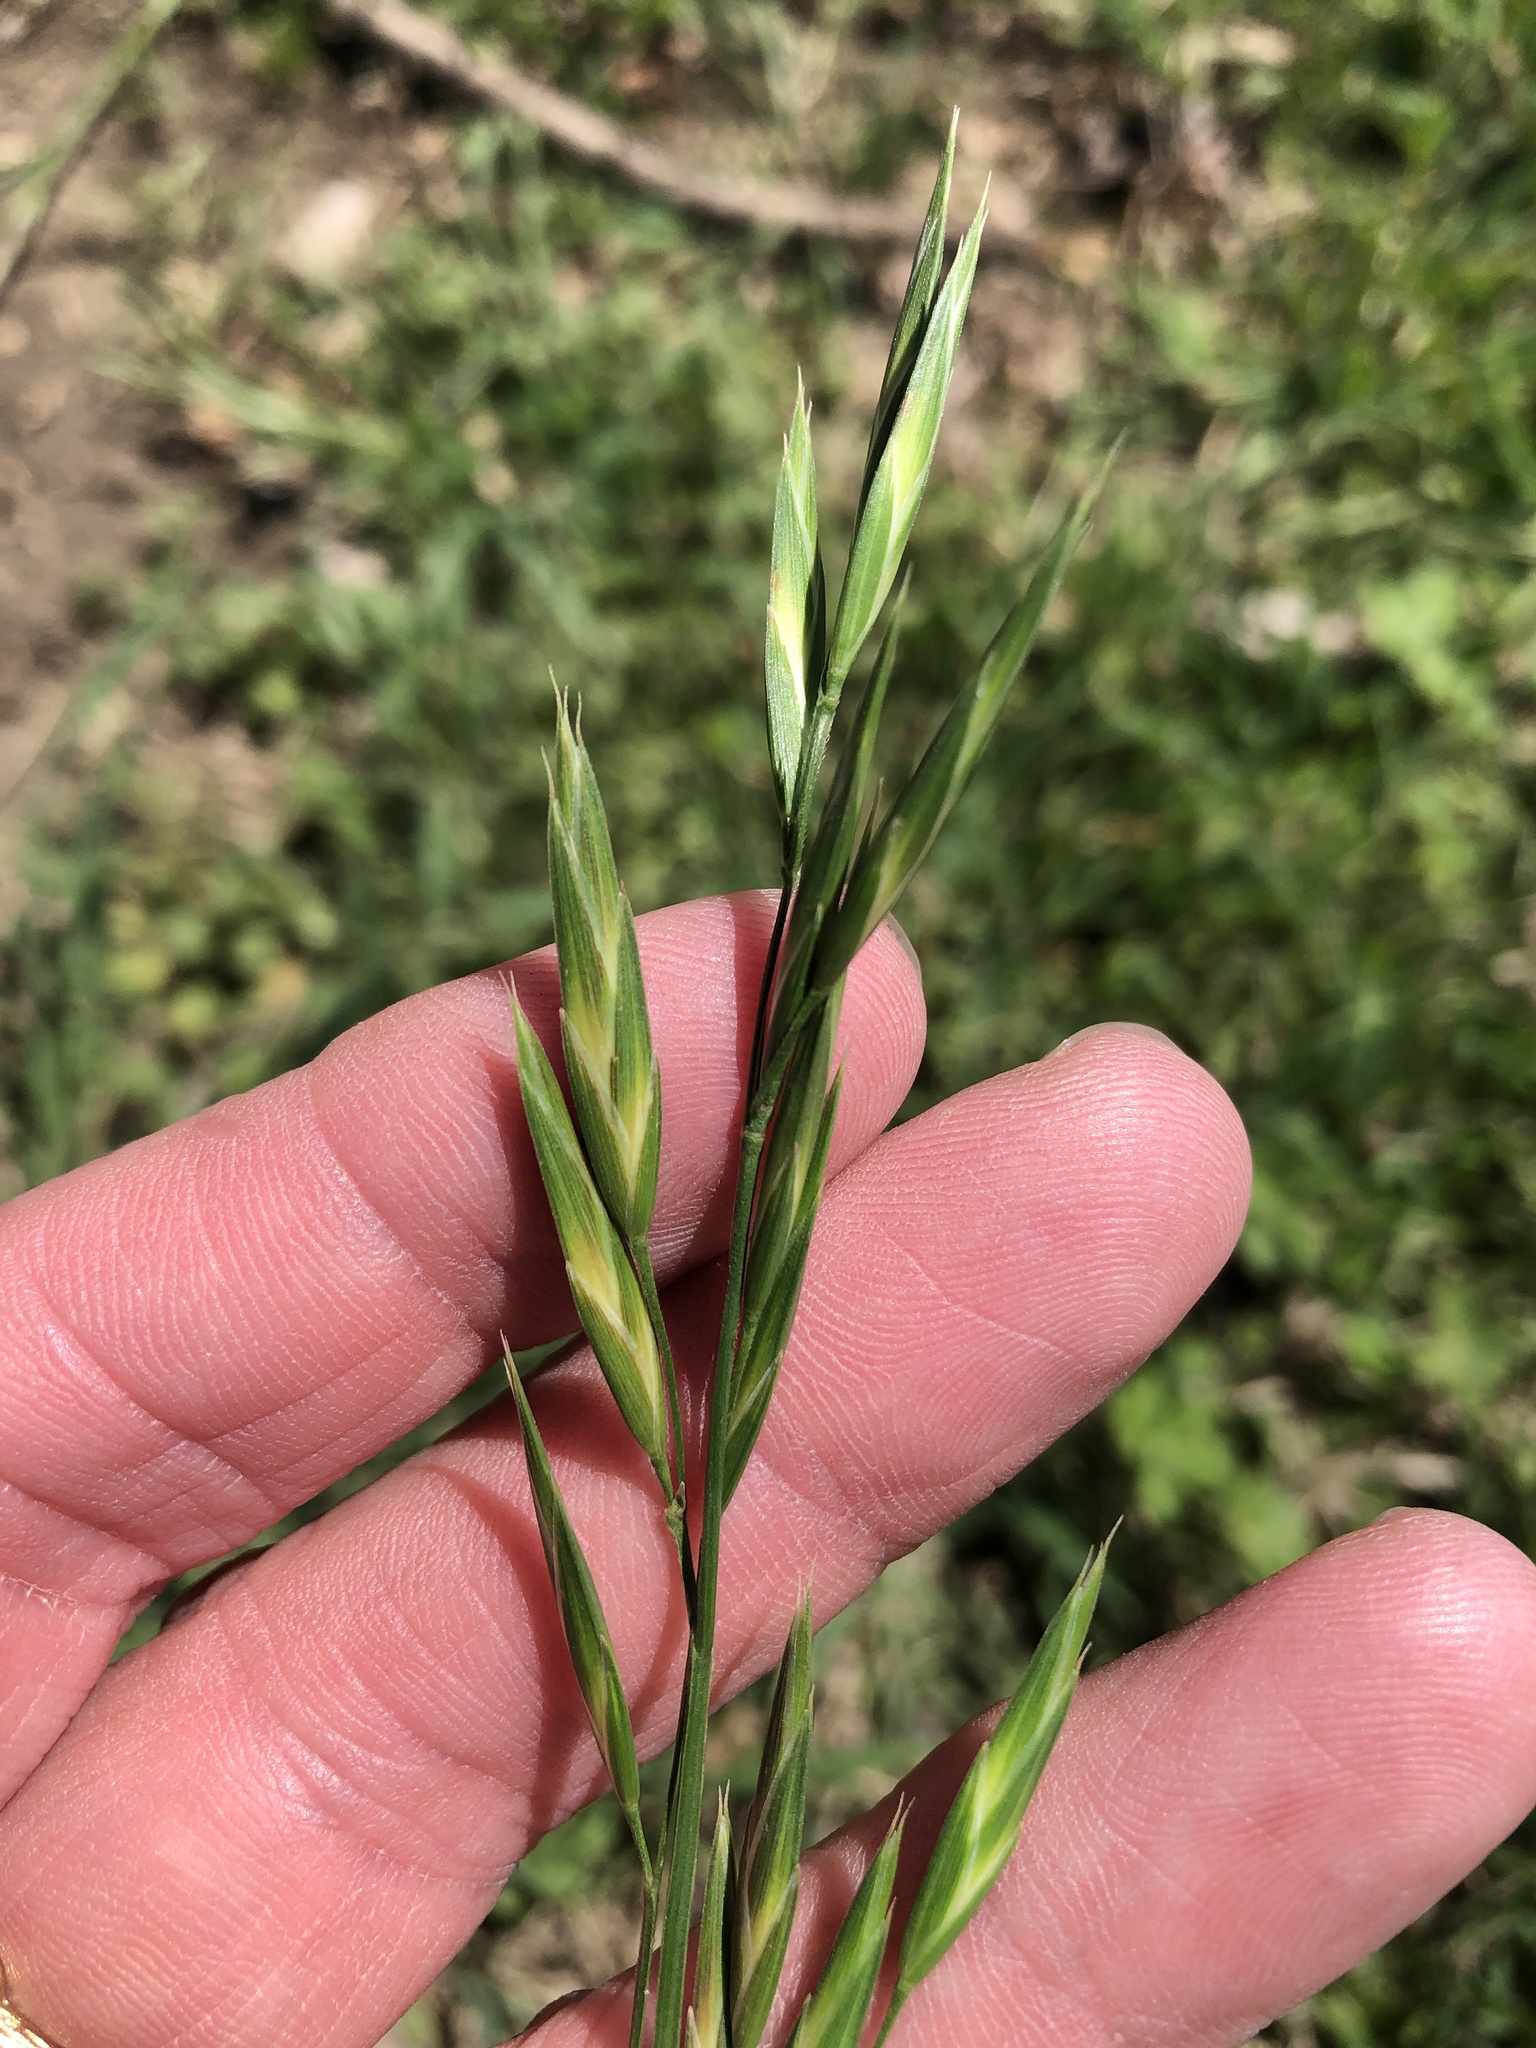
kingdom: Plantae
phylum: Tracheophyta
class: Liliopsida
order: Poales
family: Poaceae
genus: Bromus
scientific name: Bromus catharticus
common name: Rescuegrass
